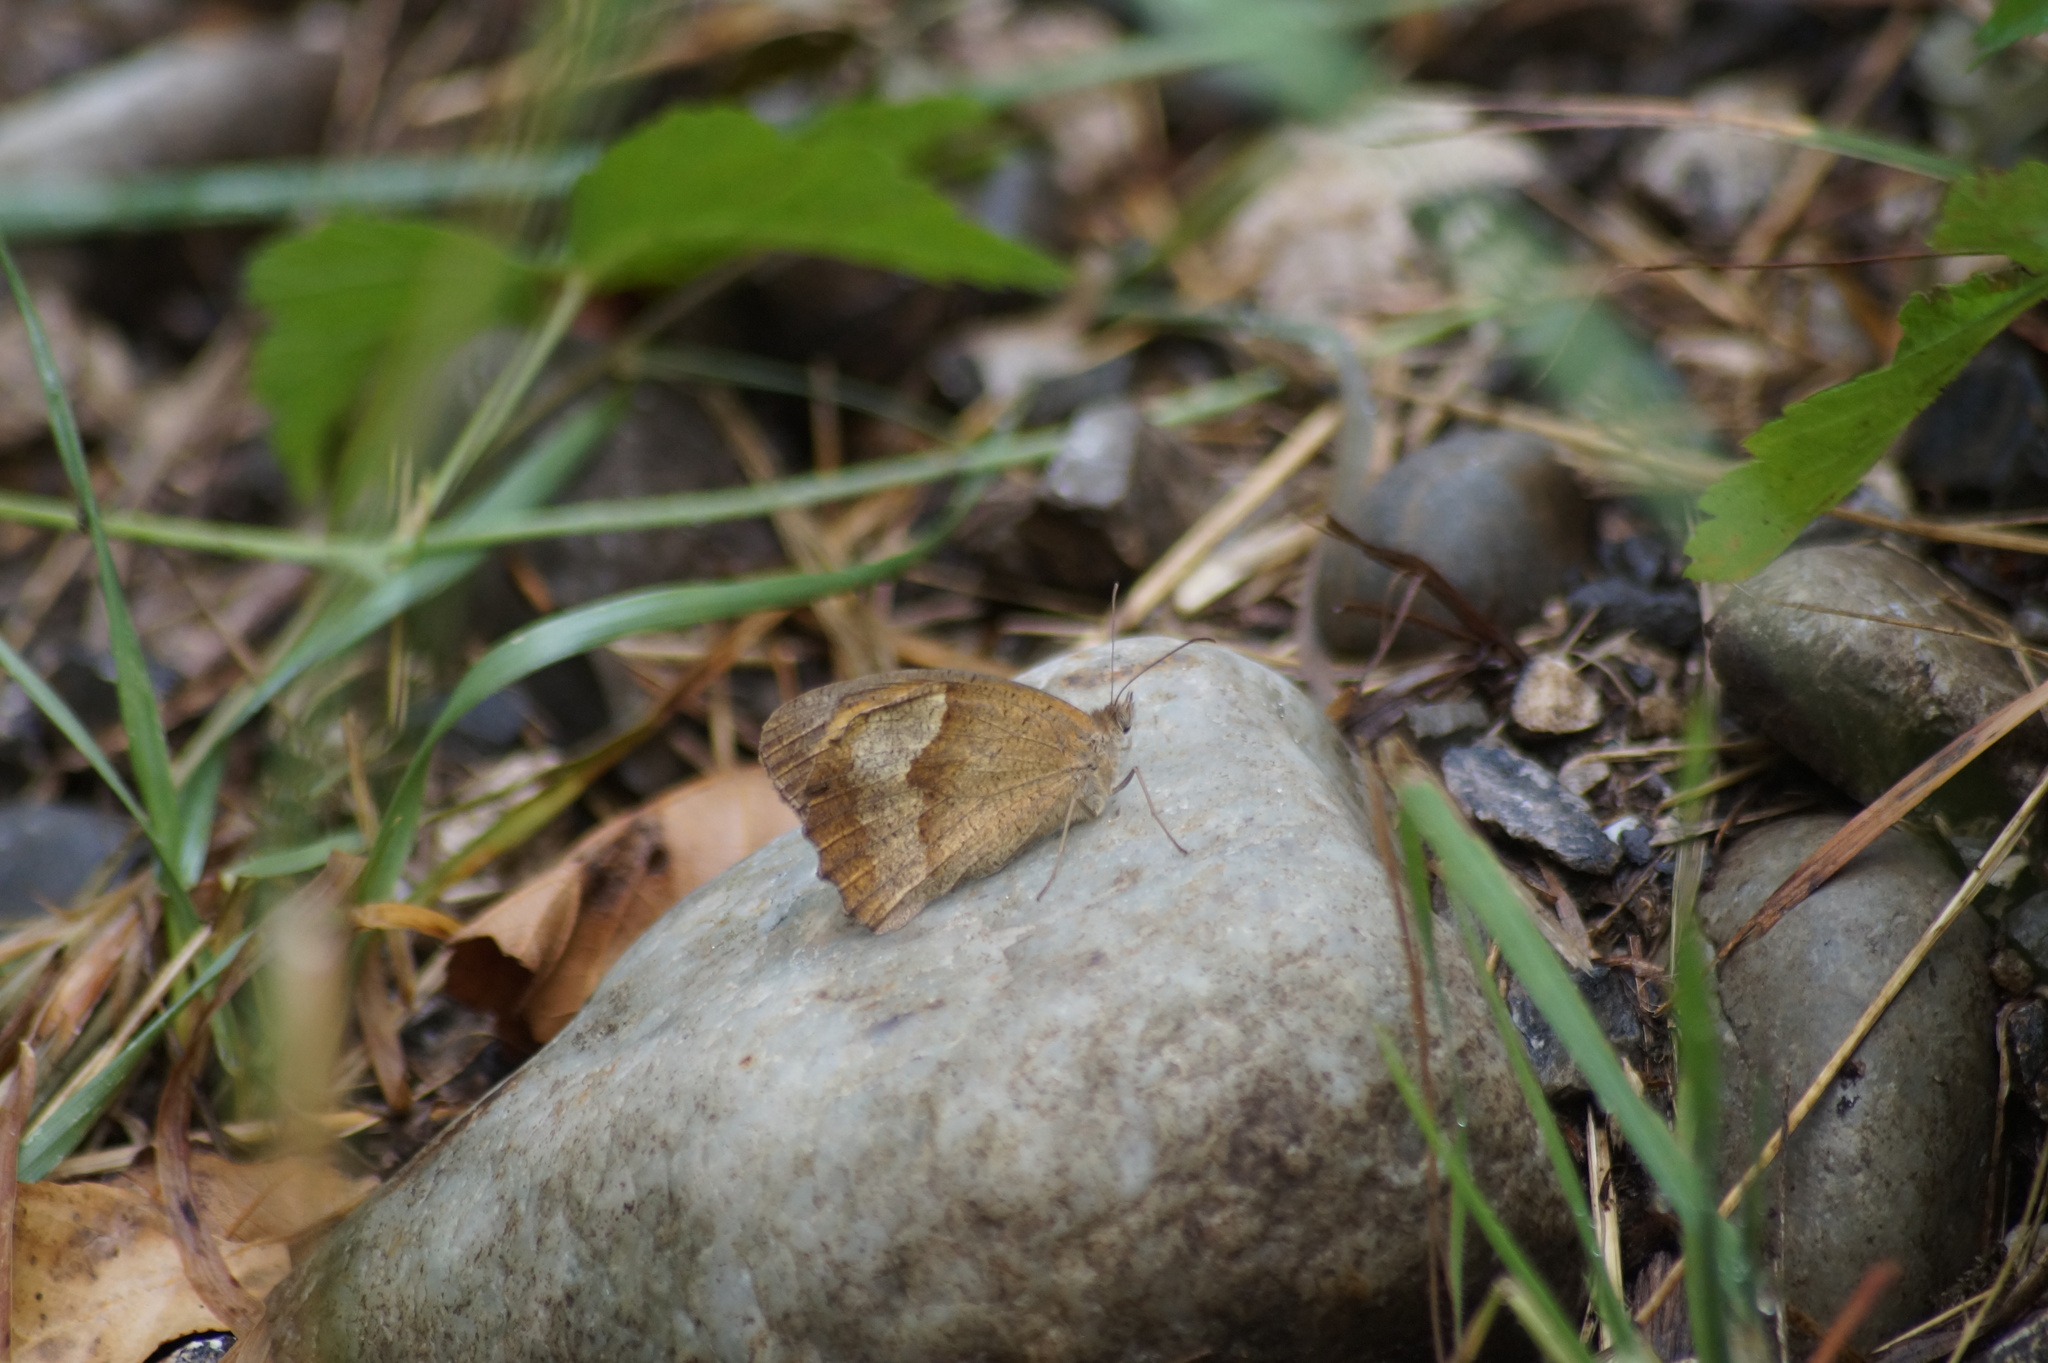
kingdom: Animalia
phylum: Arthropoda
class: Insecta
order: Lepidoptera
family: Nymphalidae
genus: Maniola
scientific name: Maniola jurtina
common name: Meadow brown
